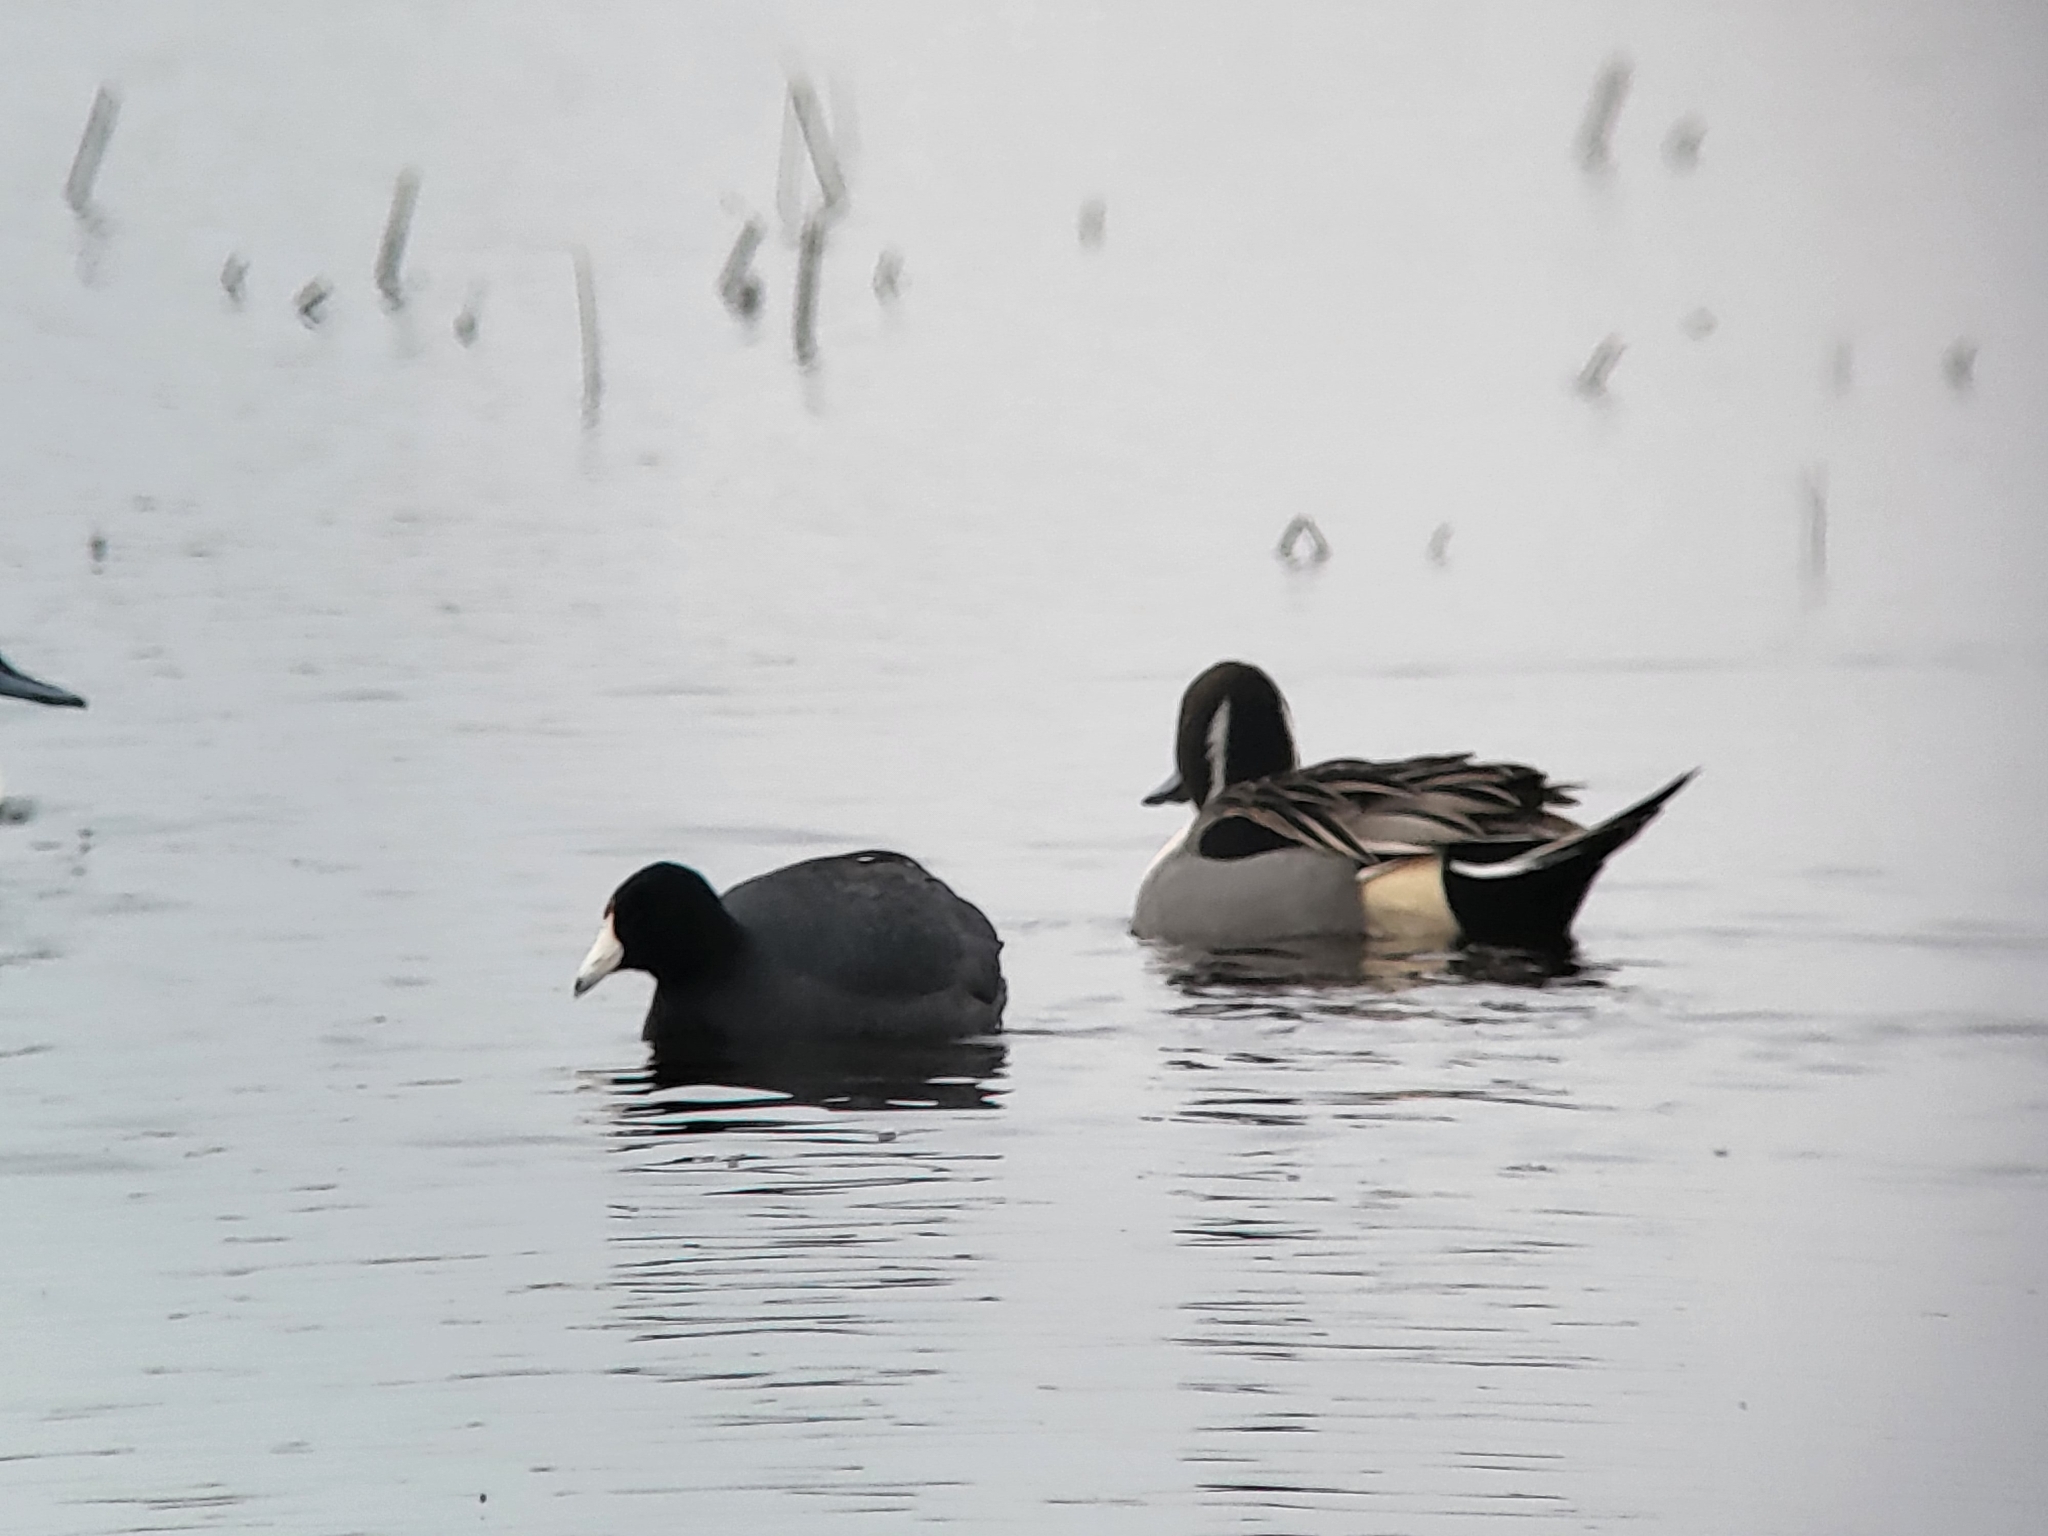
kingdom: Animalia
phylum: Chordata
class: Aves
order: Gruiformes
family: Rallidae
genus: Fulica
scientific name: Fulica americana
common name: American coot
